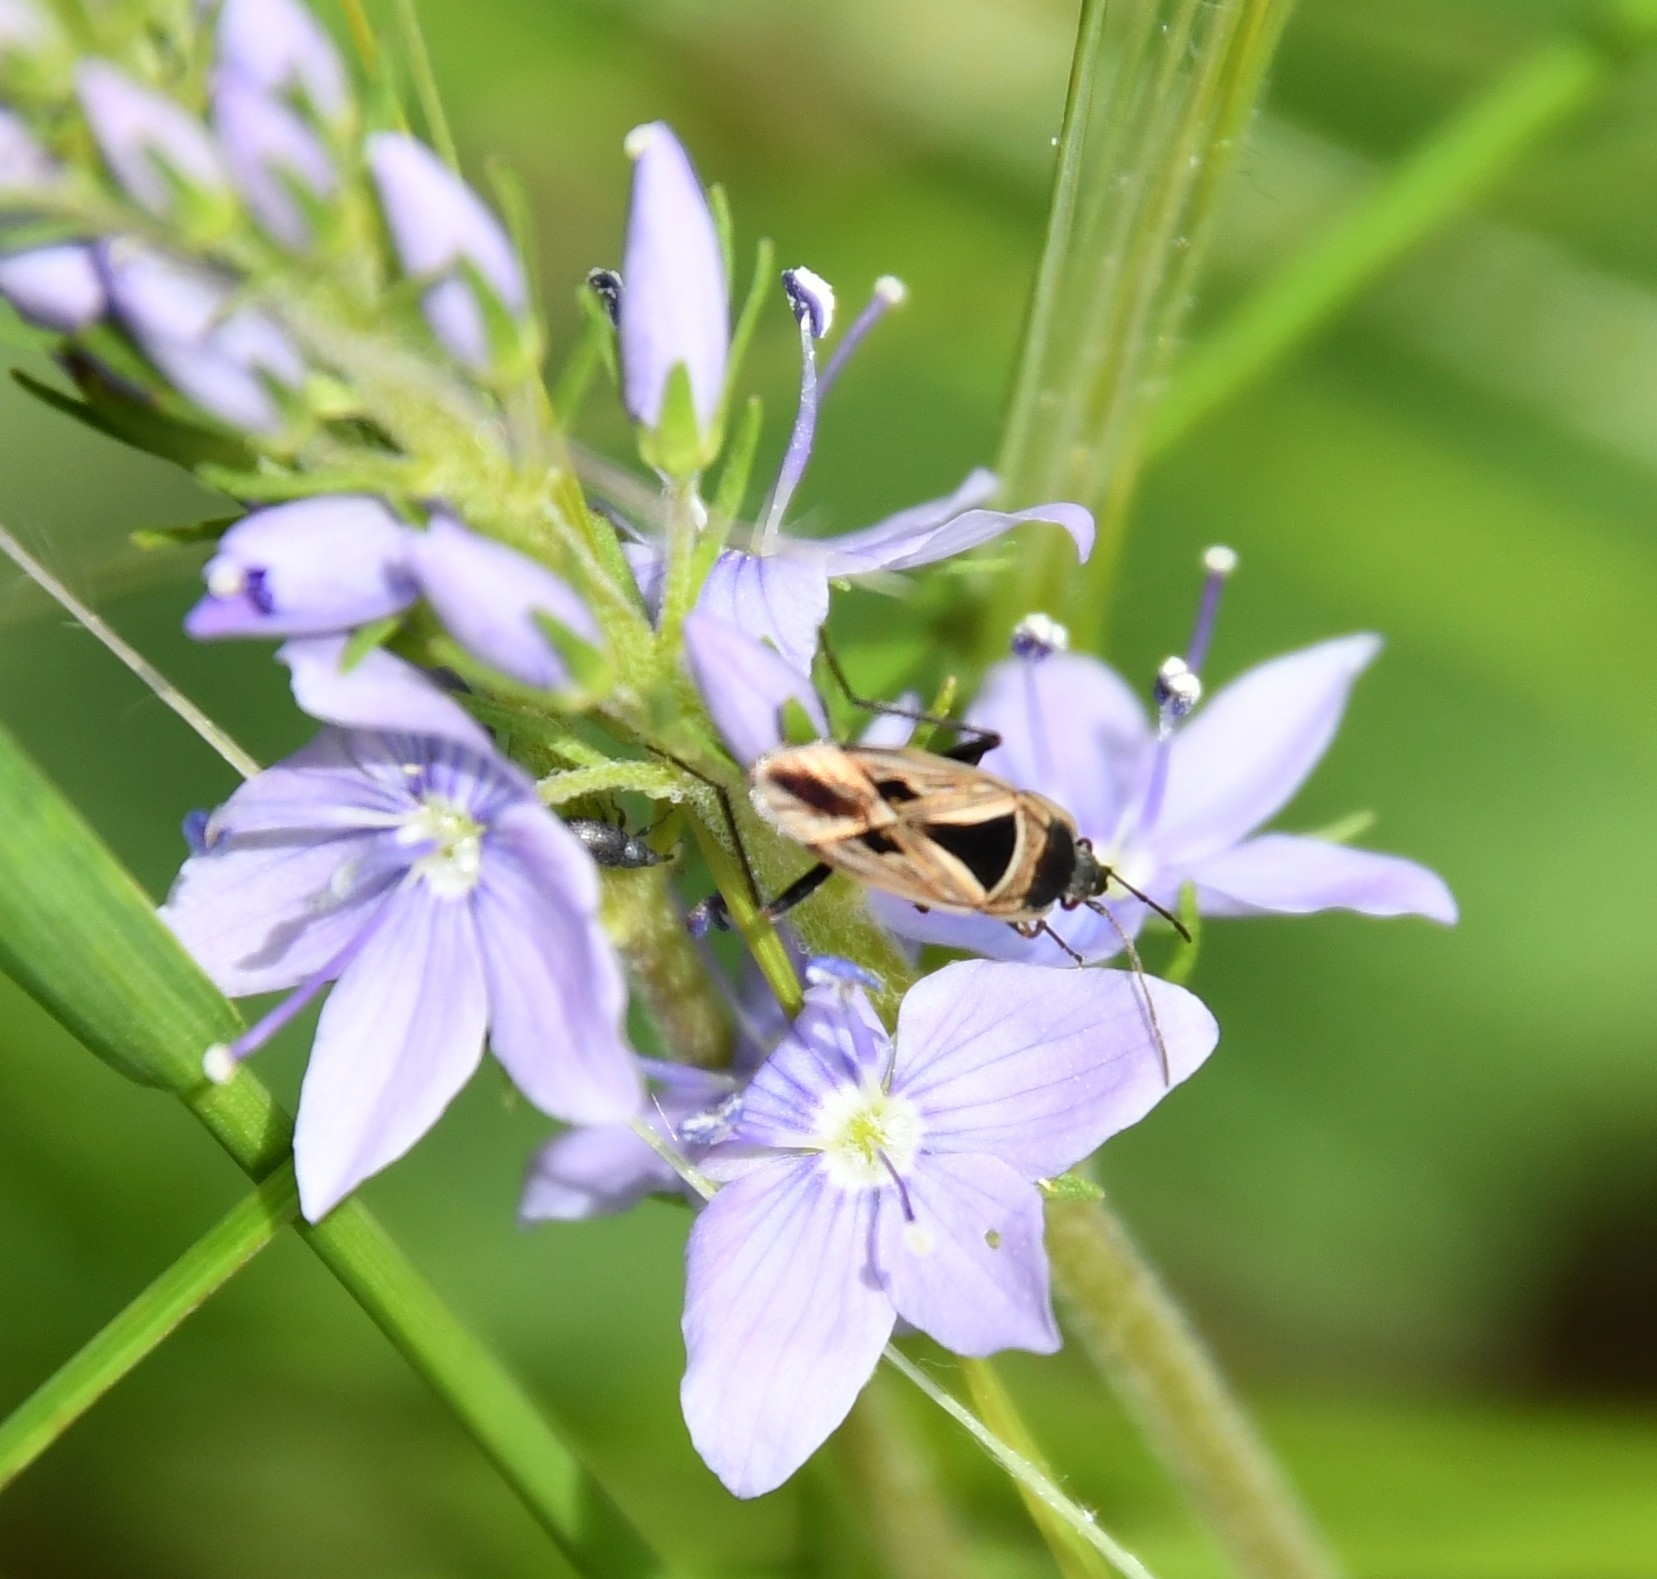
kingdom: Animalia
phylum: Arthropoda
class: Insecta
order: Hemiptera
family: Rhyparochromidae
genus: Xanthochilus
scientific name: Xanthochilus quadratus
